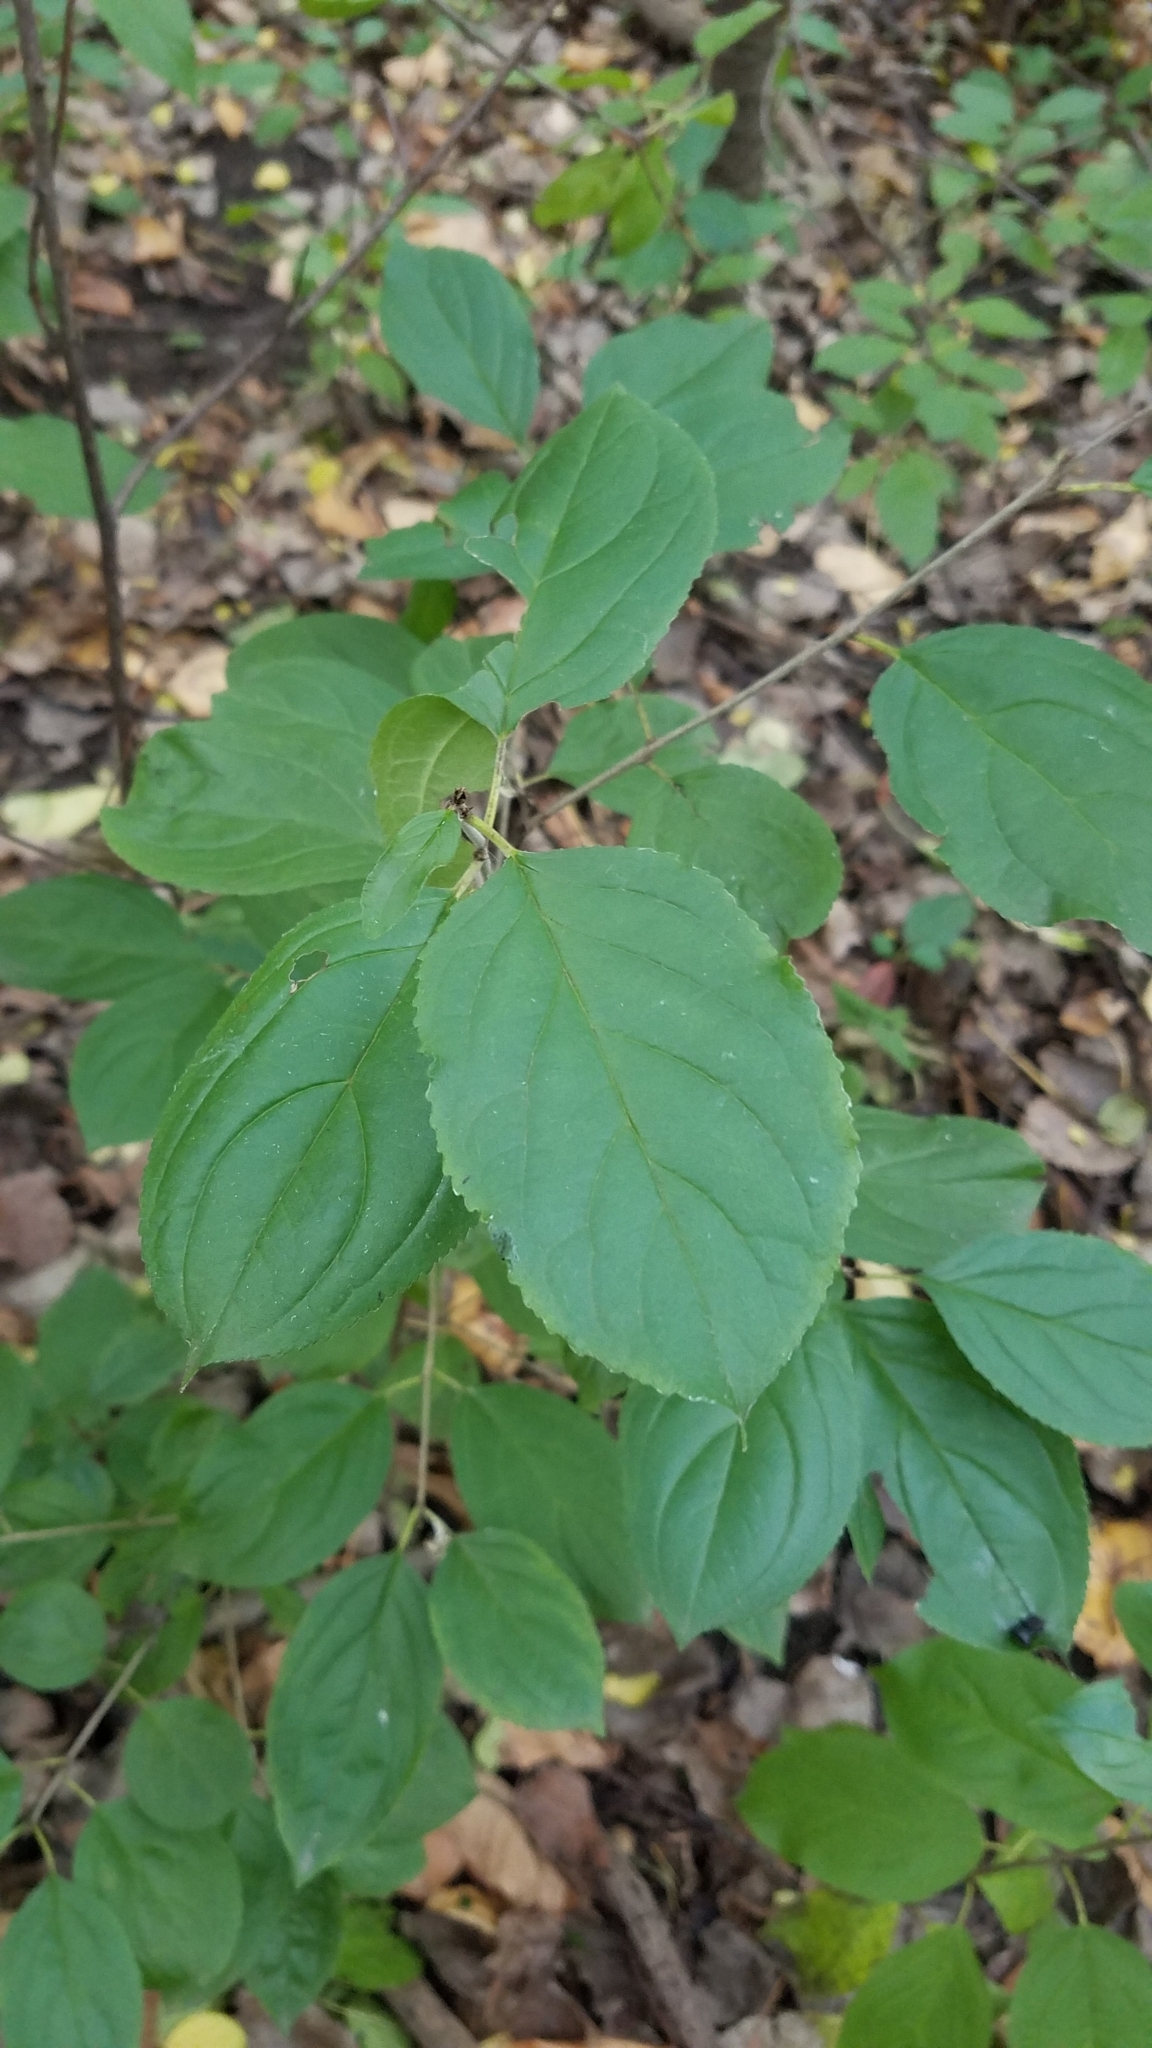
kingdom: Plantae
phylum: Tracheophyta
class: Magnoliopsida
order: Rosales
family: Rhamnaceae
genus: Rhamnus
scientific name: Rhamnus cathartica
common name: Common buckthorn
